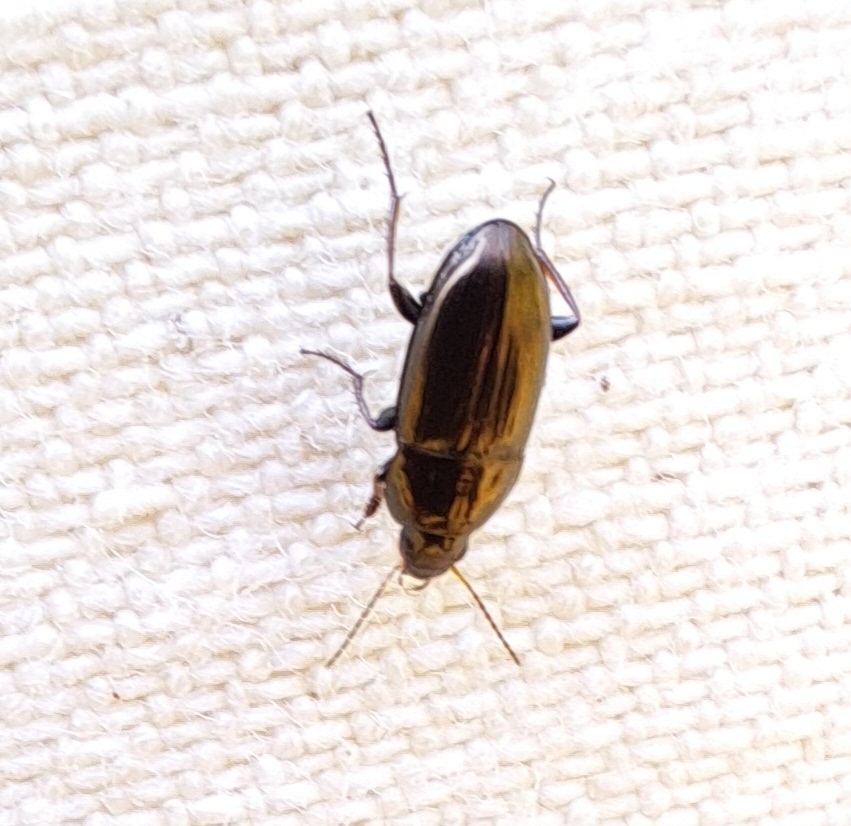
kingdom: Animalia
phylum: Arthropoda
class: Insecta
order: Coleoptera
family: Carabidae
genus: Amara
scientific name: Amara aenea
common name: Common sun beetle
